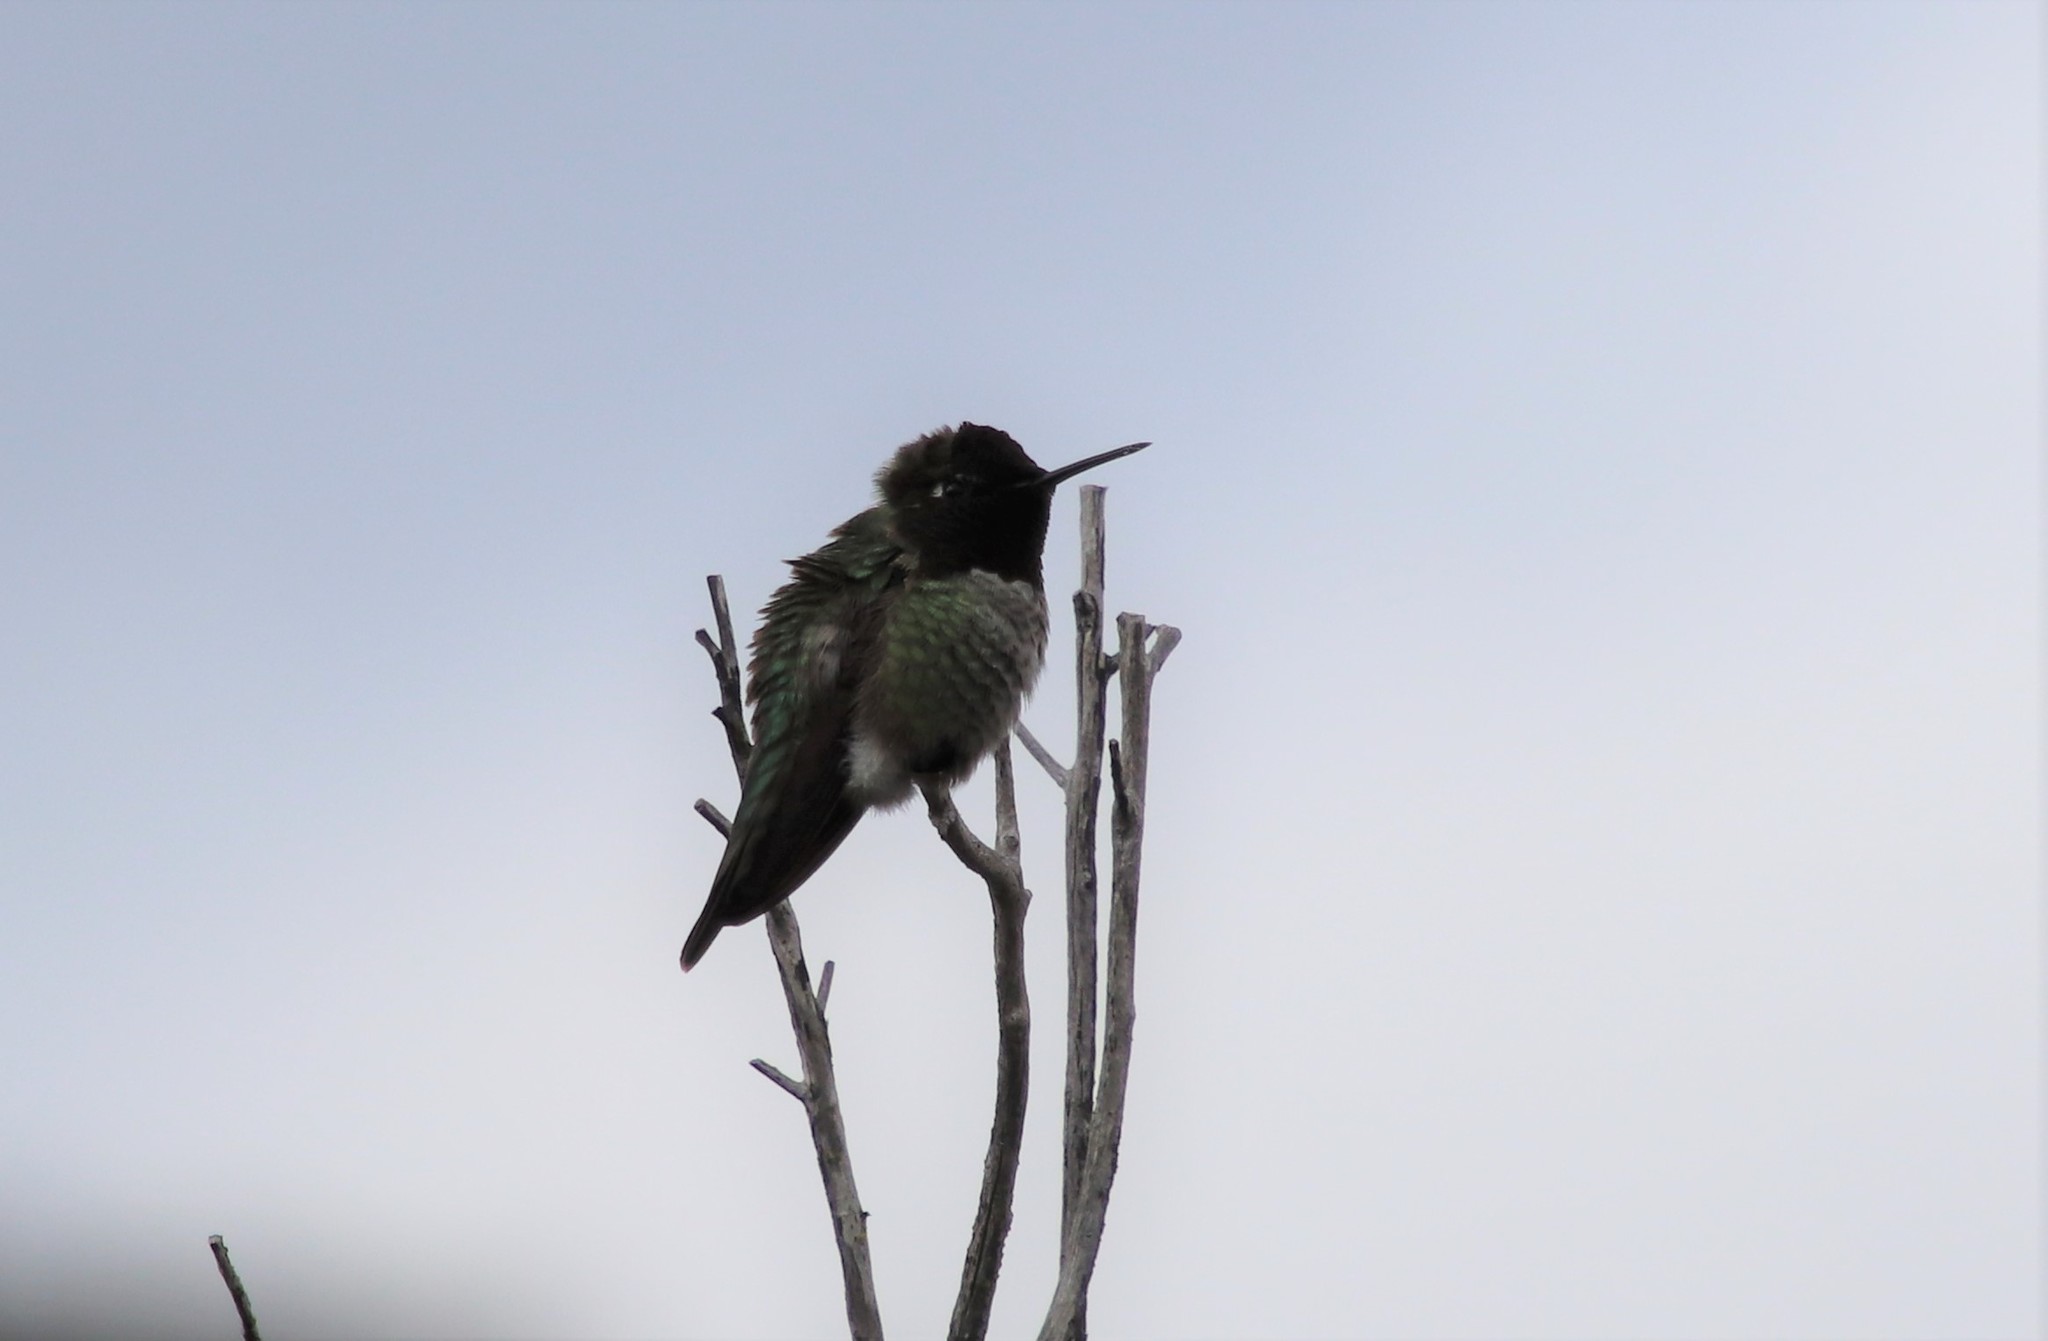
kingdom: Animalia
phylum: Chordata
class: Aves
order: Apodiformes
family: Trochilidae
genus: Calypte
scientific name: Calypte anna
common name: Anna's hummingbird
